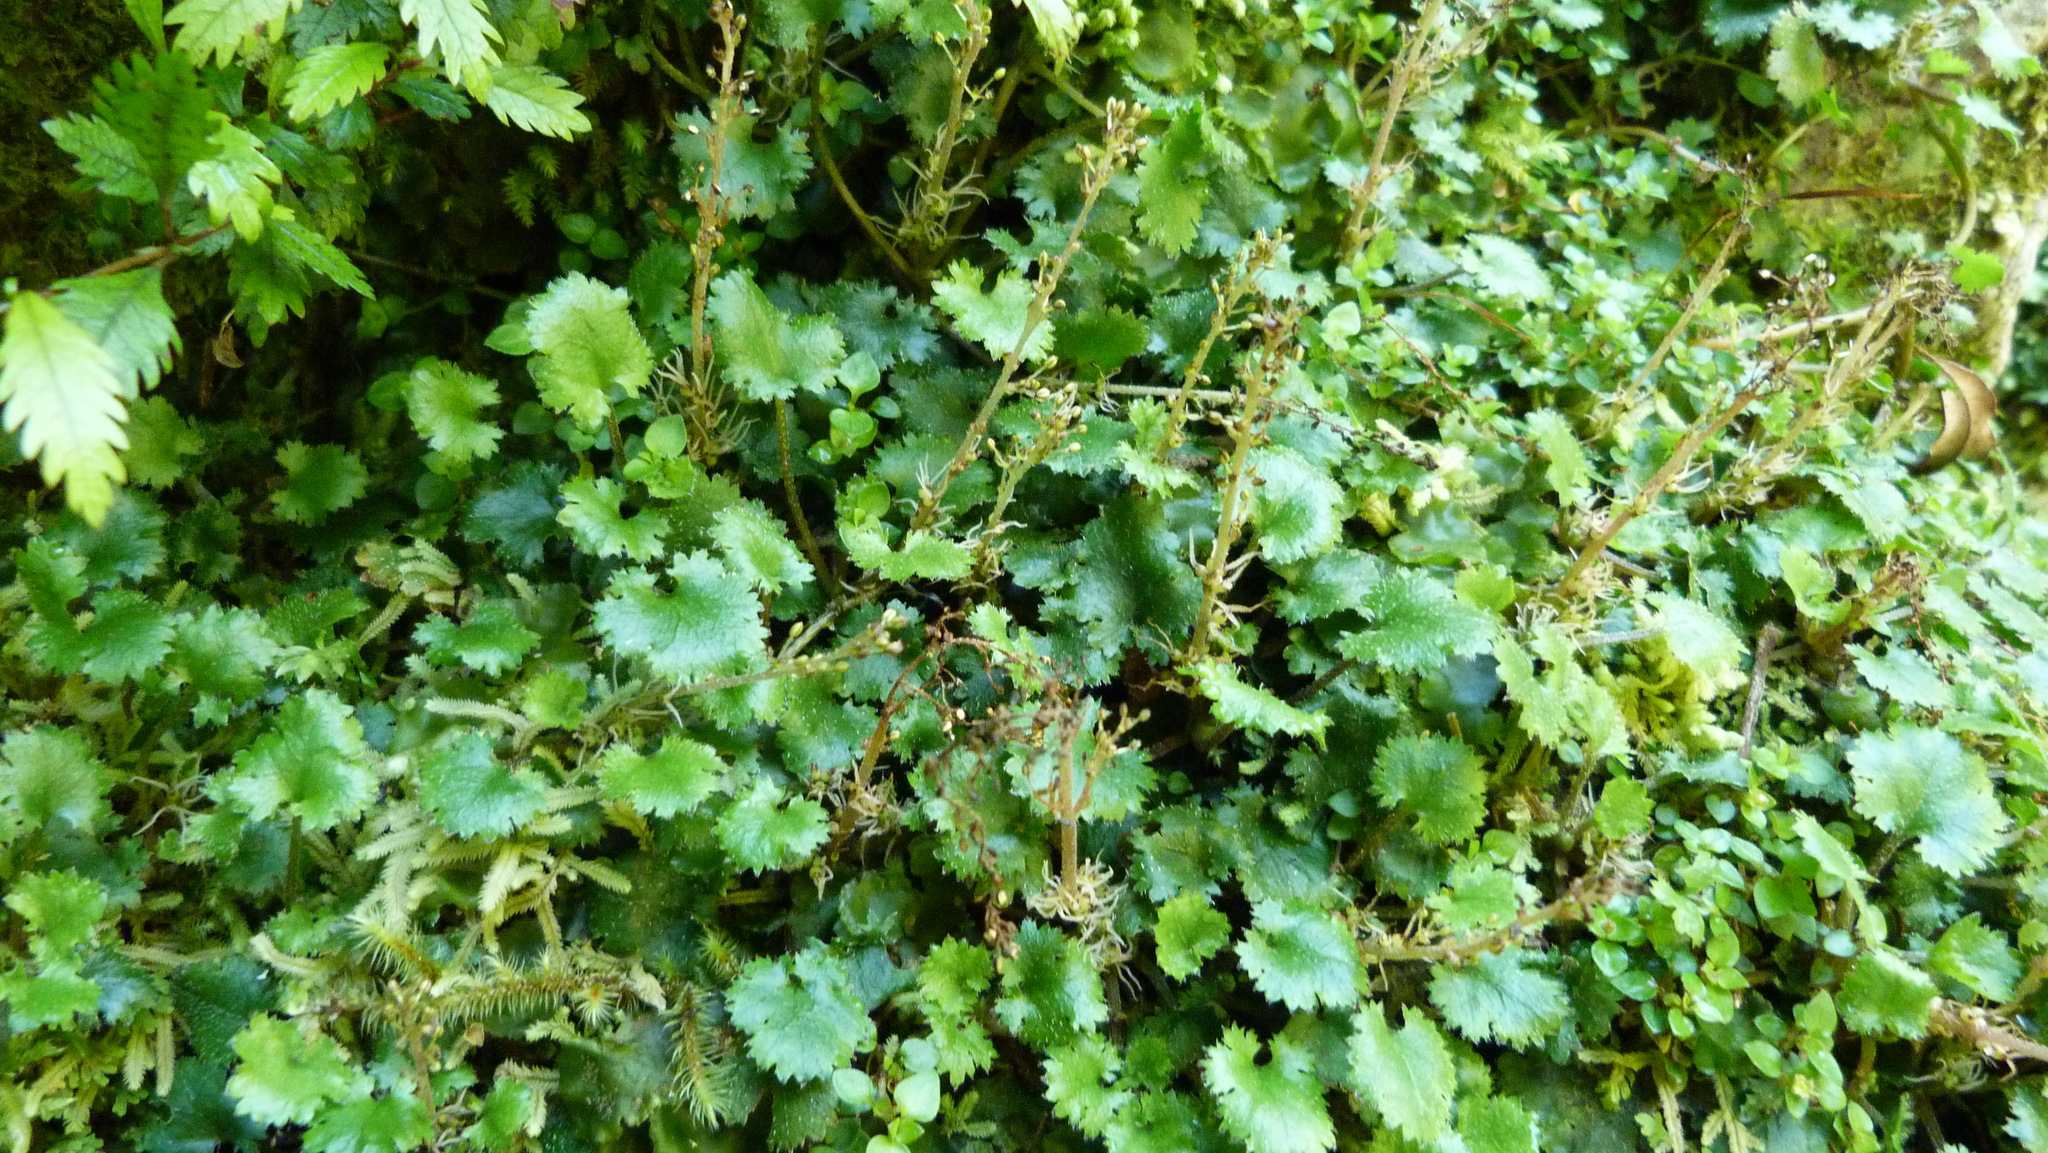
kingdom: Plantae
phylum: Tracheophyta
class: Magnoliopsida
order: Gunnerales
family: Gunneraceae
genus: Gunnera
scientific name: Gunnera monoica
